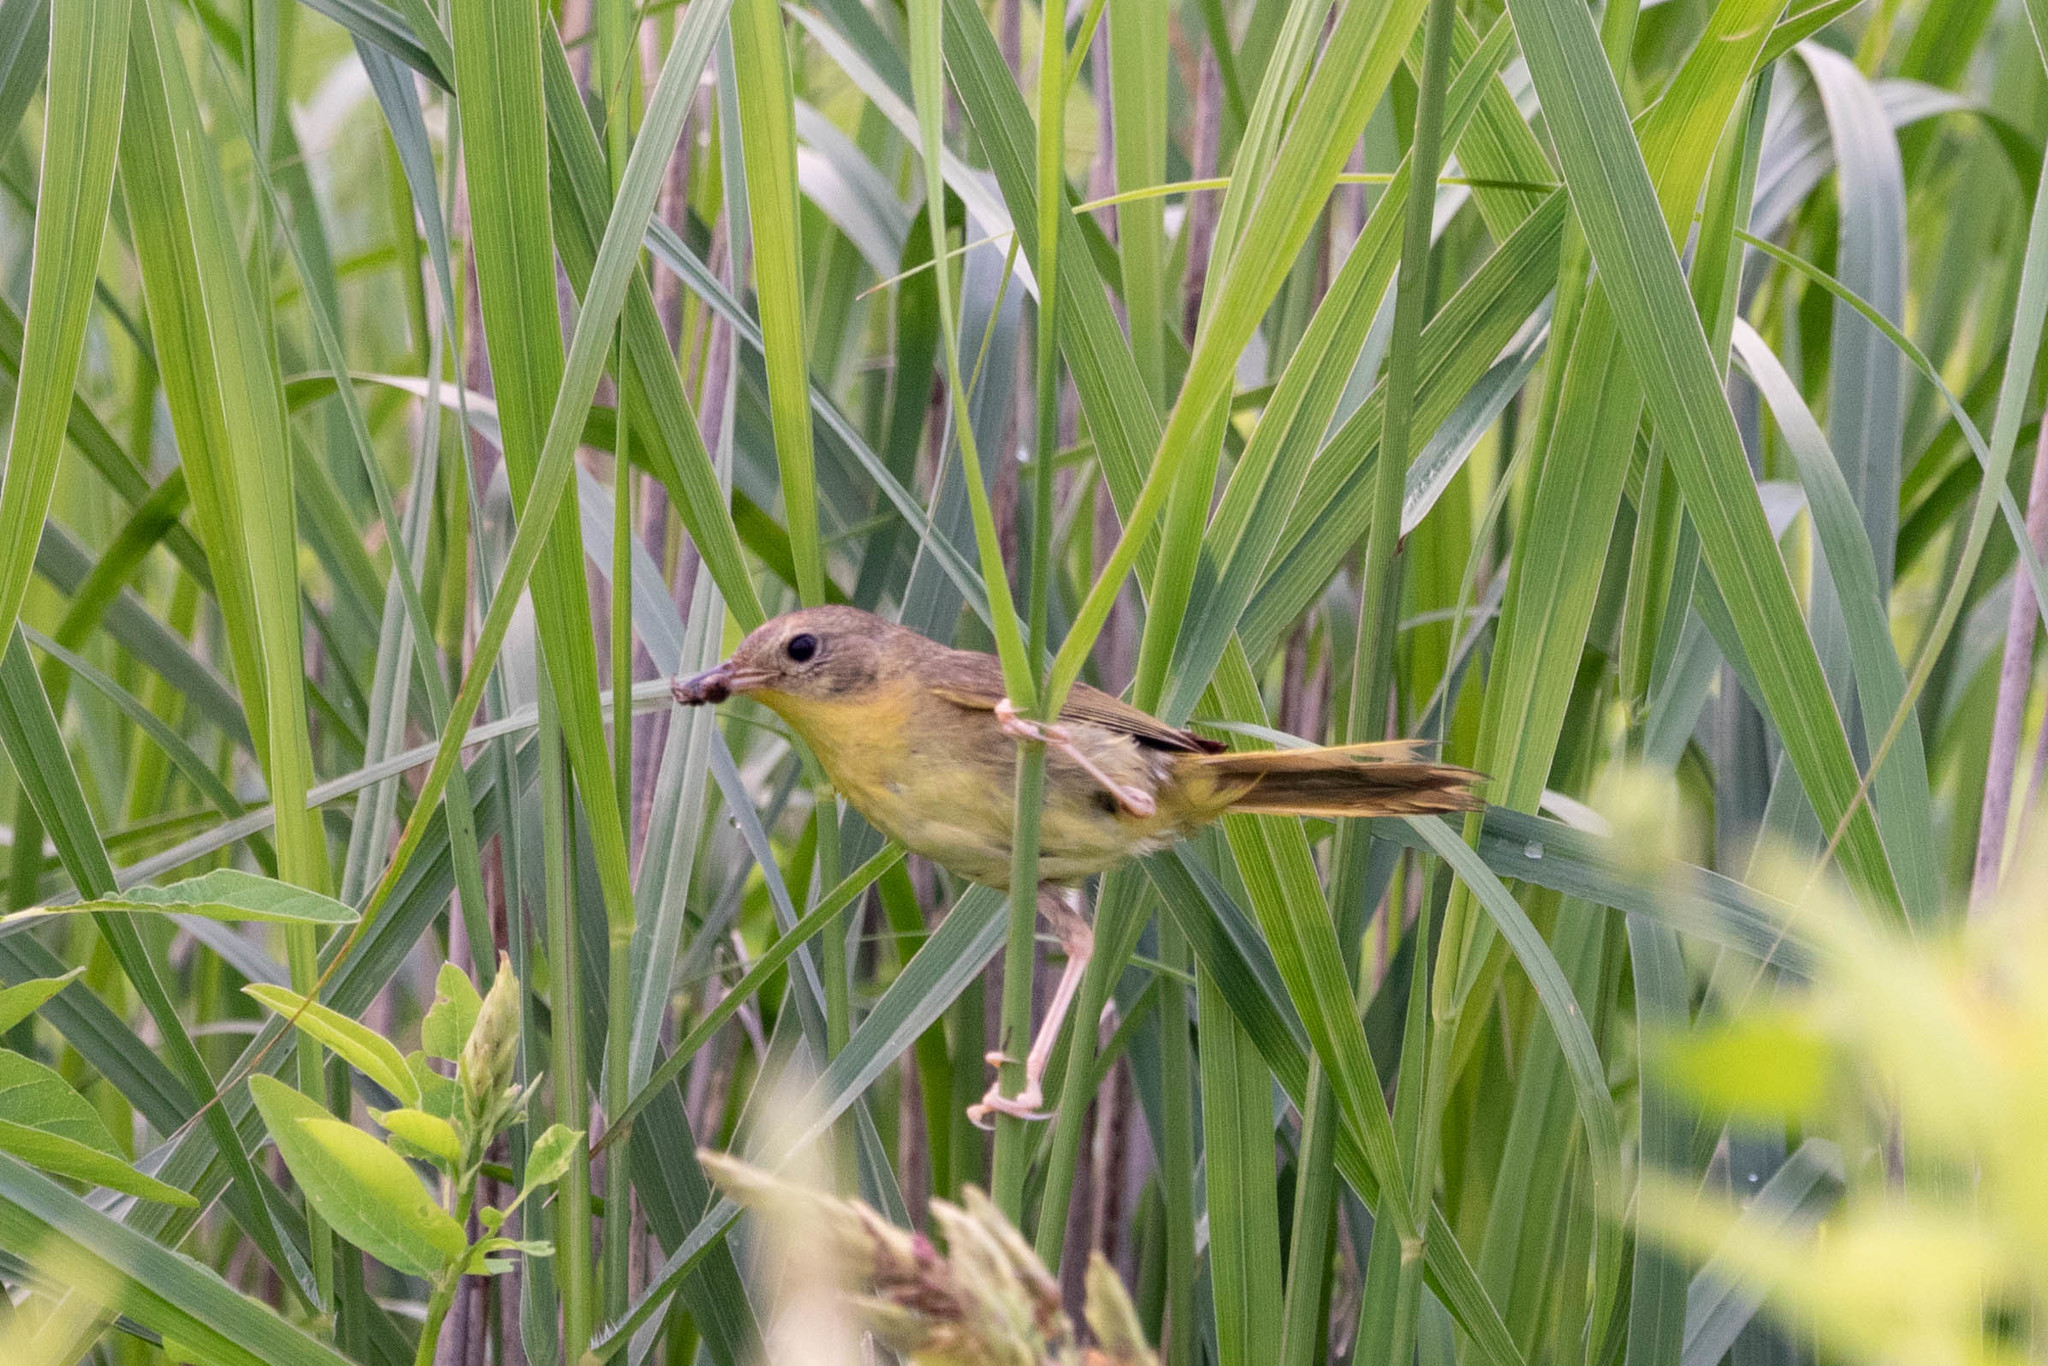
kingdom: Animalia
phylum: Chordata
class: Aves
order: Passeriformes
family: Parulidae
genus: Geothlypis
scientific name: Geothlypis trichas
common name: Common yellowthroat
